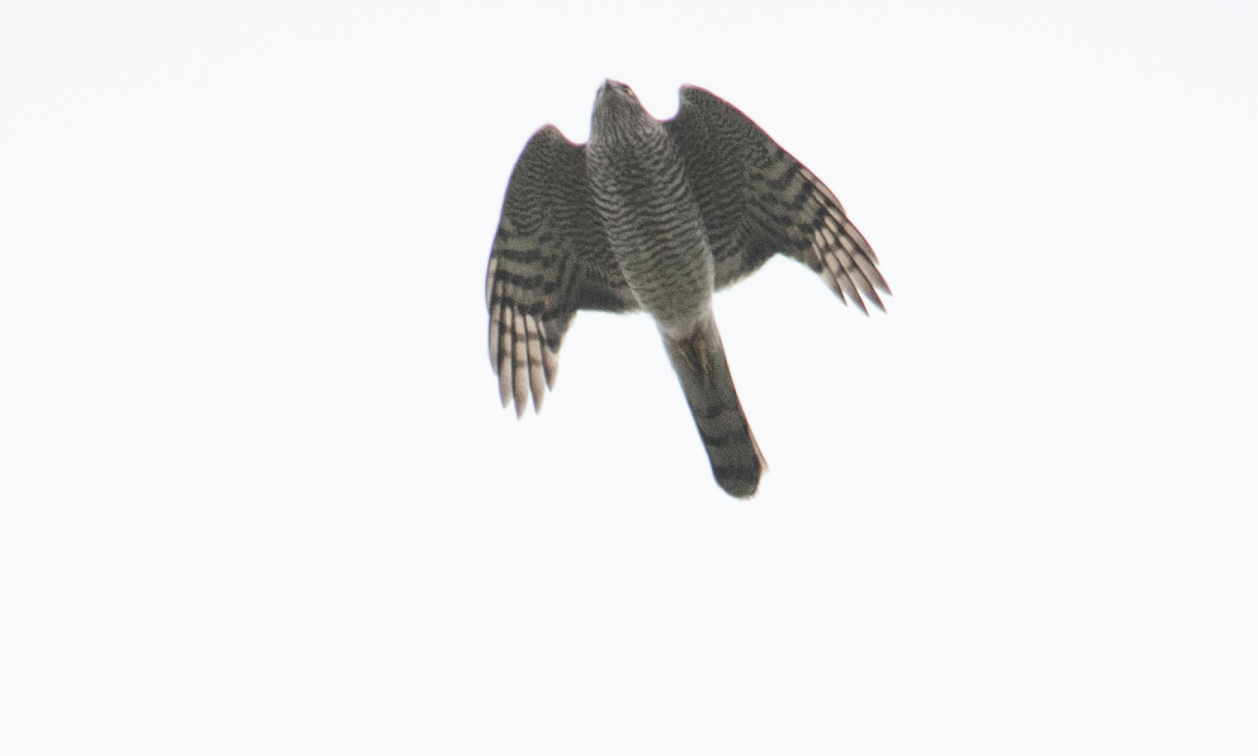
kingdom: Animalia
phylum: Chordata
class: Aves
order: Accipitriformes
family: Accipitridae
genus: Accipiter
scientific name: Accipiter nisus
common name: Eurasian sparrowhawk
